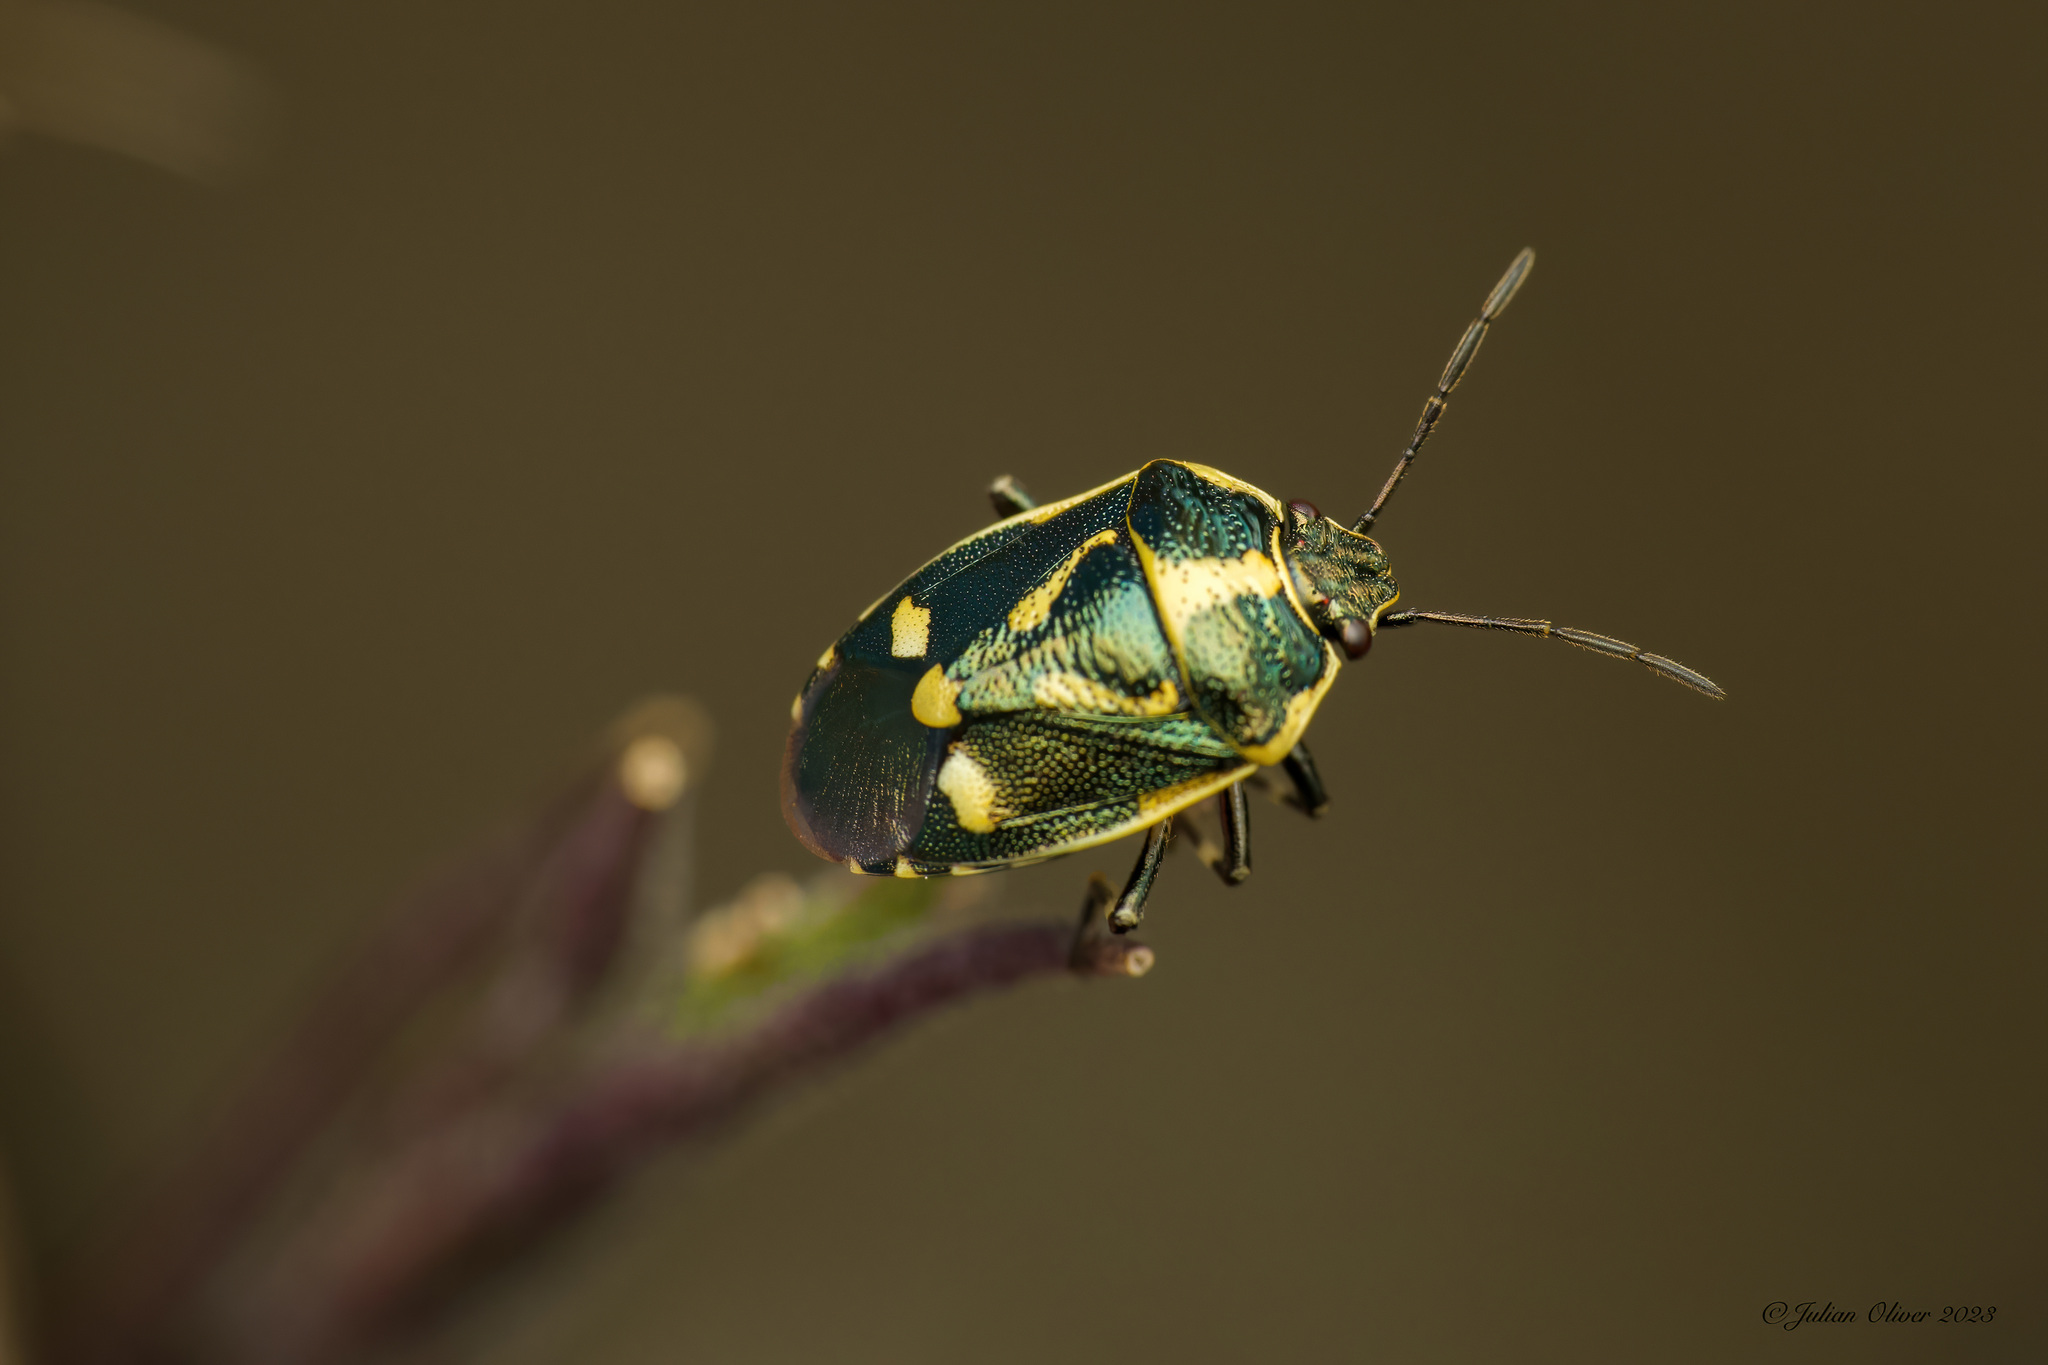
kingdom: Animalia
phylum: Arthropoda
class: Insecta
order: Hemiptera
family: Pentatomidae
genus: Eurydema
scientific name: Eurydema oleracea
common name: Cabbage bug
